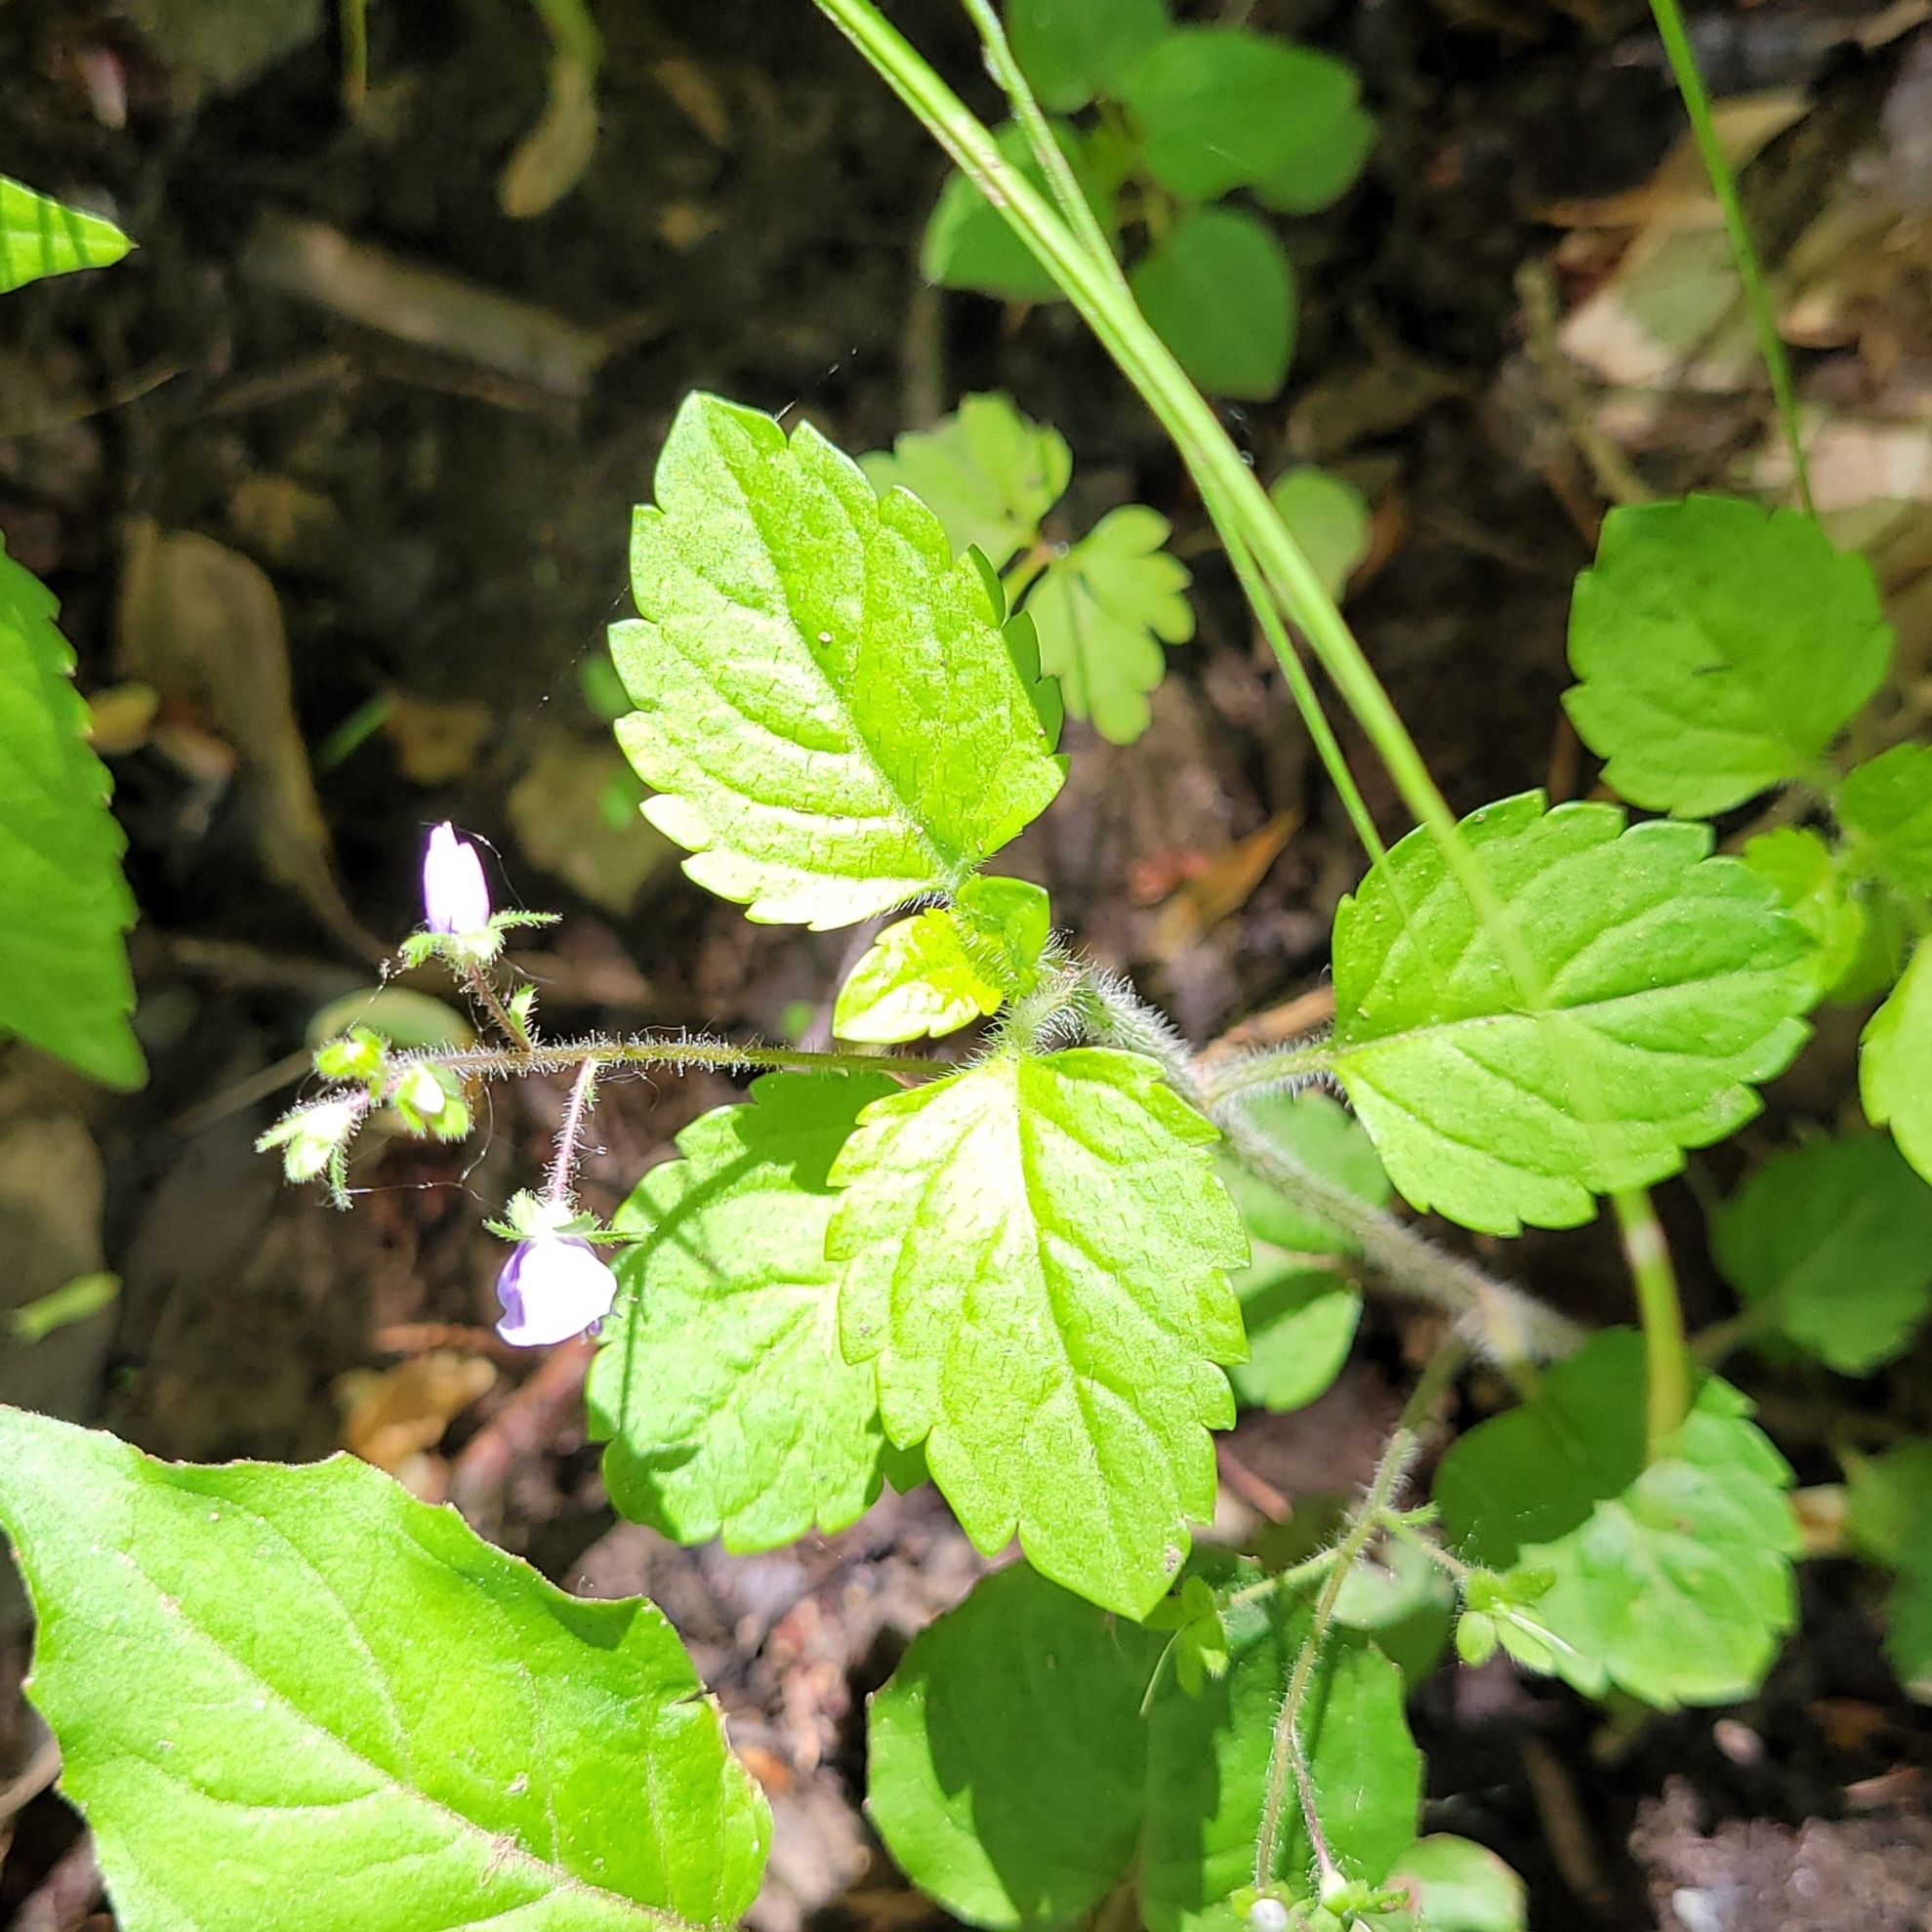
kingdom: Plantae
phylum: Tracheophyta
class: Magnoliopsida
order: Lamiales
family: Plantaginaceae
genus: Veronica
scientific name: Veronica montana
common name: Wood speedwell
